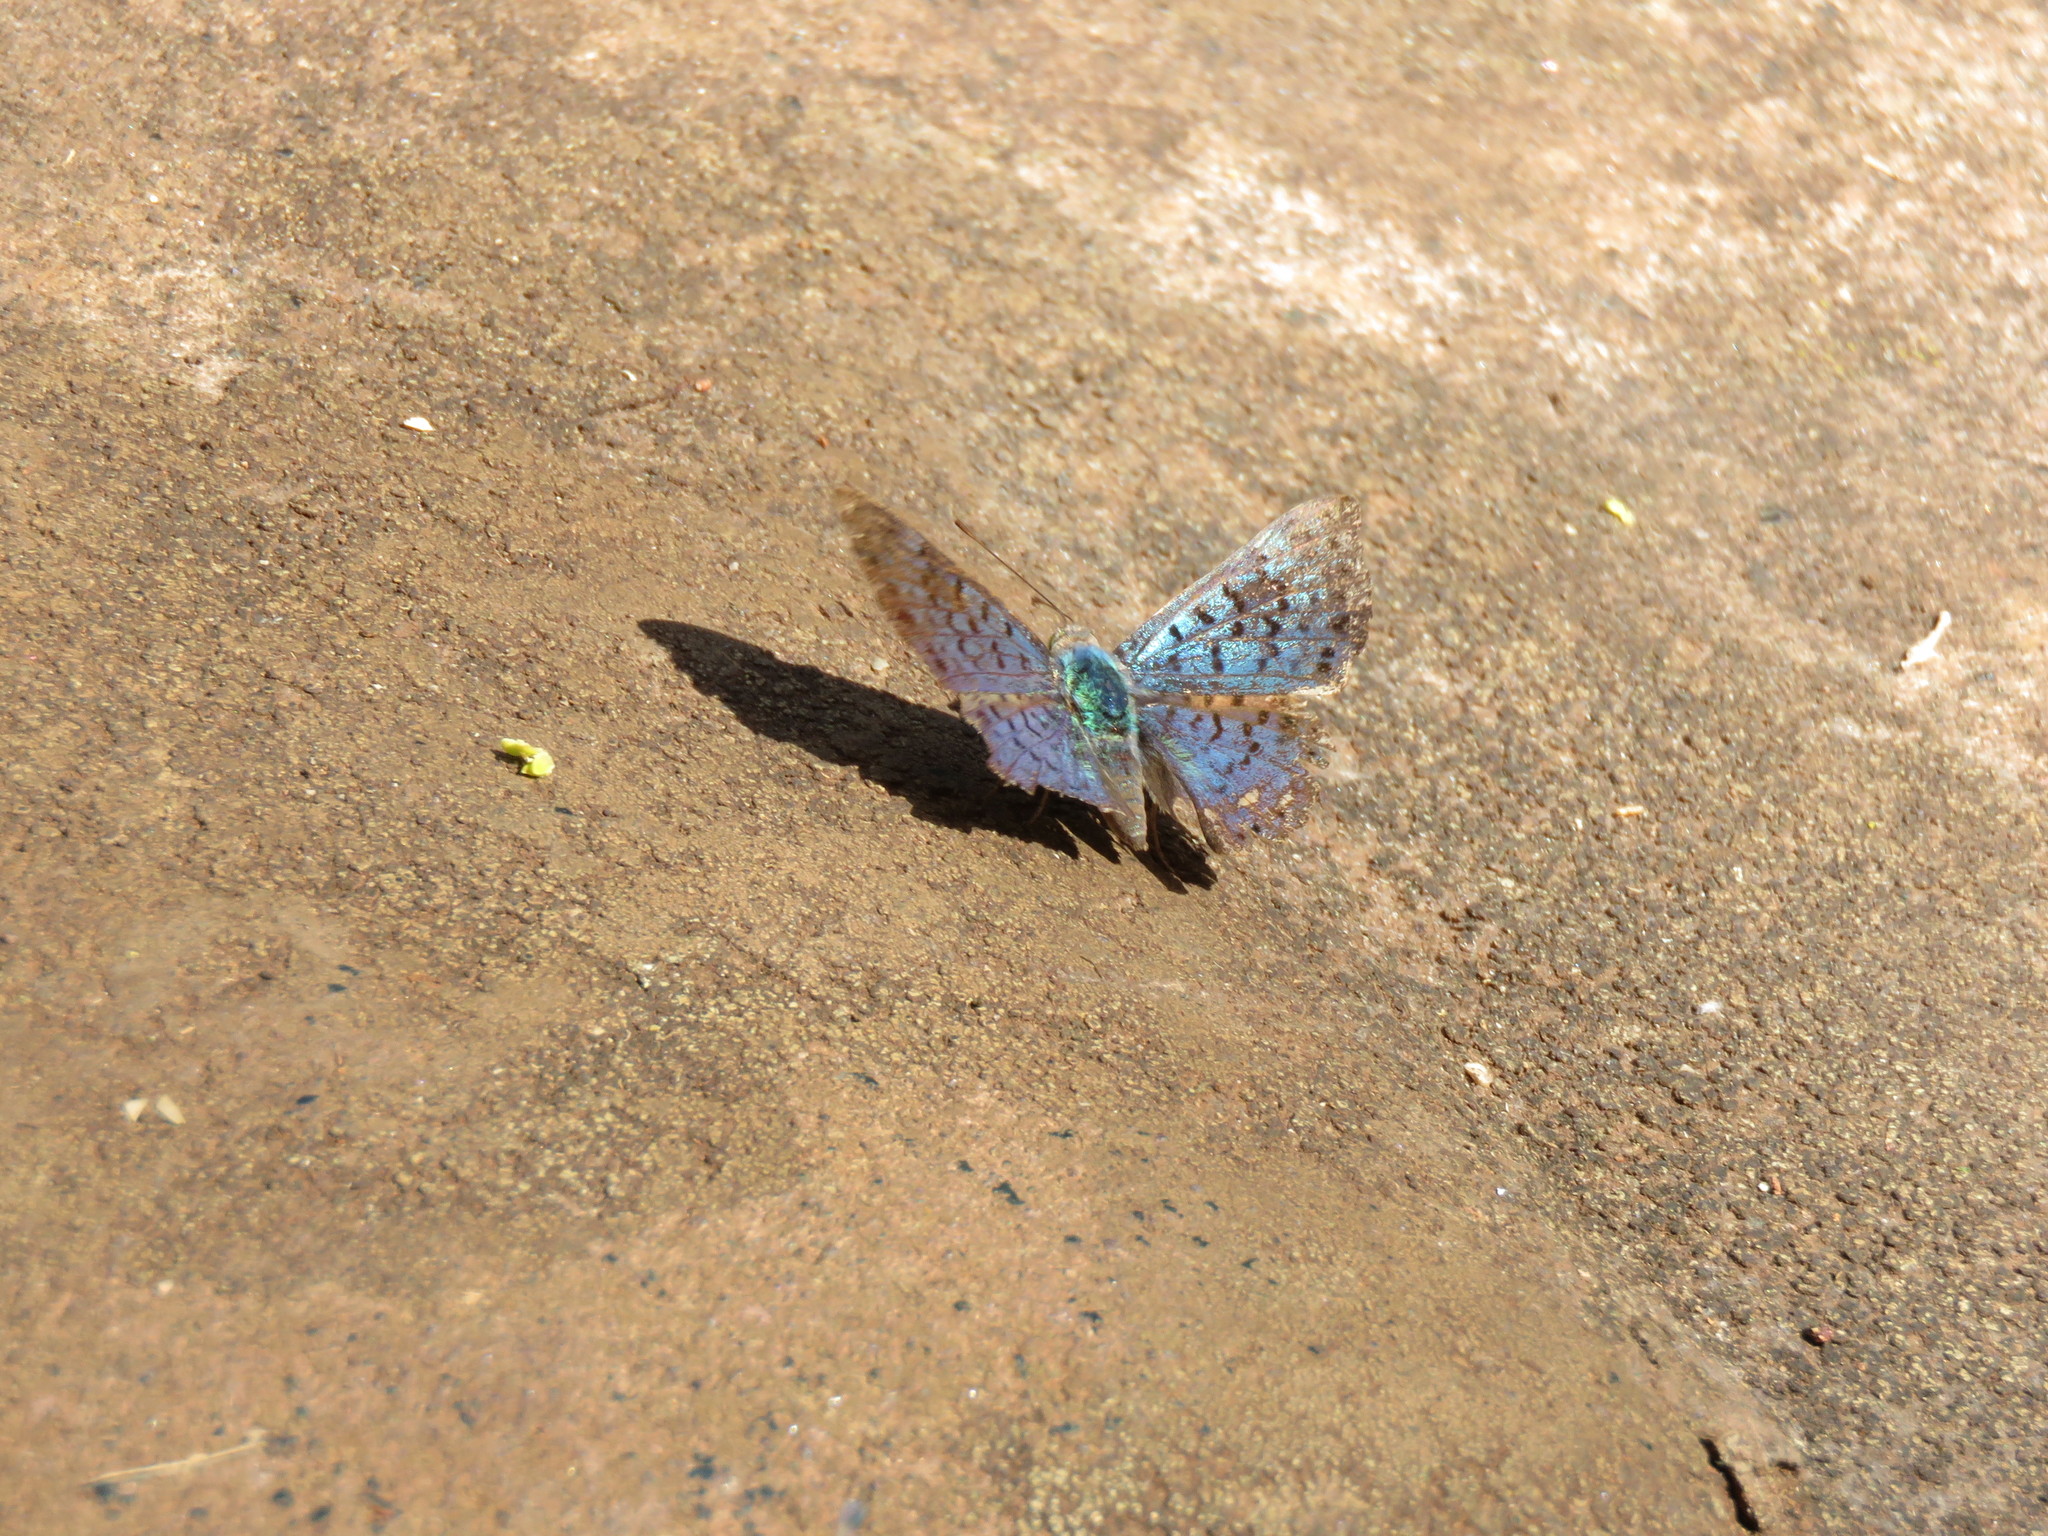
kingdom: Animalia
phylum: Arthropoda
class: Insecta
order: Lepidoptera
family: Riodinidae
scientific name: Riodinidae
